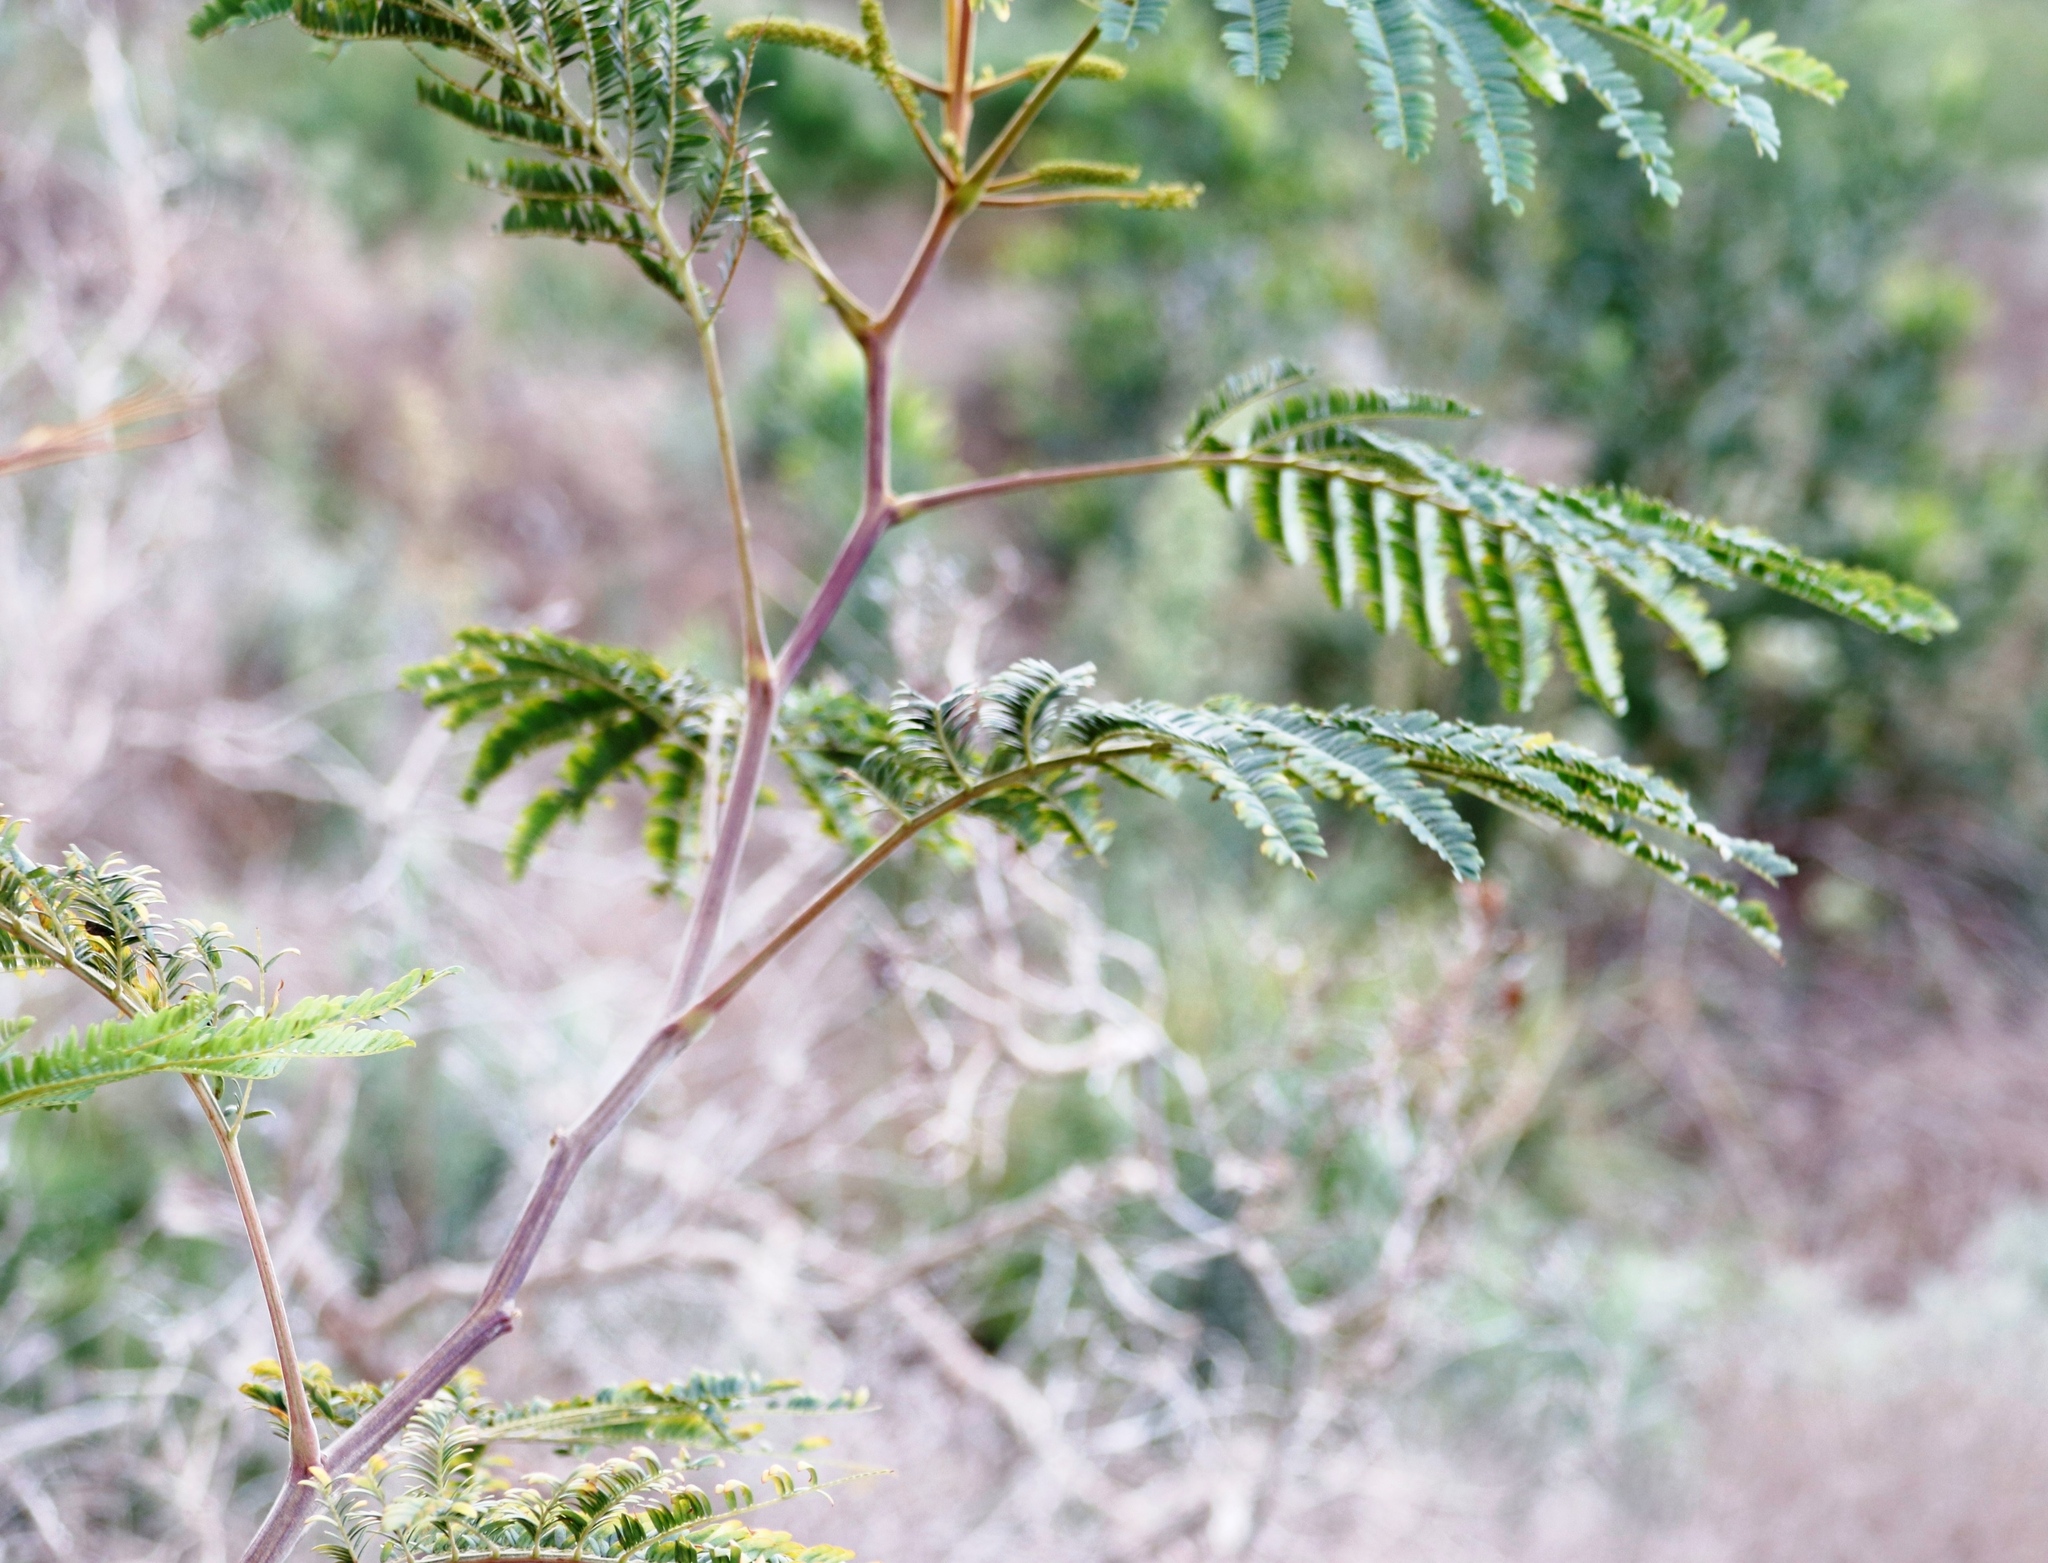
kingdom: Plantae
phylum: Tracheophyta
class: Magnoliopsida
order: Fabales
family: Fabaceae
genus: Paraserianthes
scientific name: Paraserianthes lophantha
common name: Plume albizia
